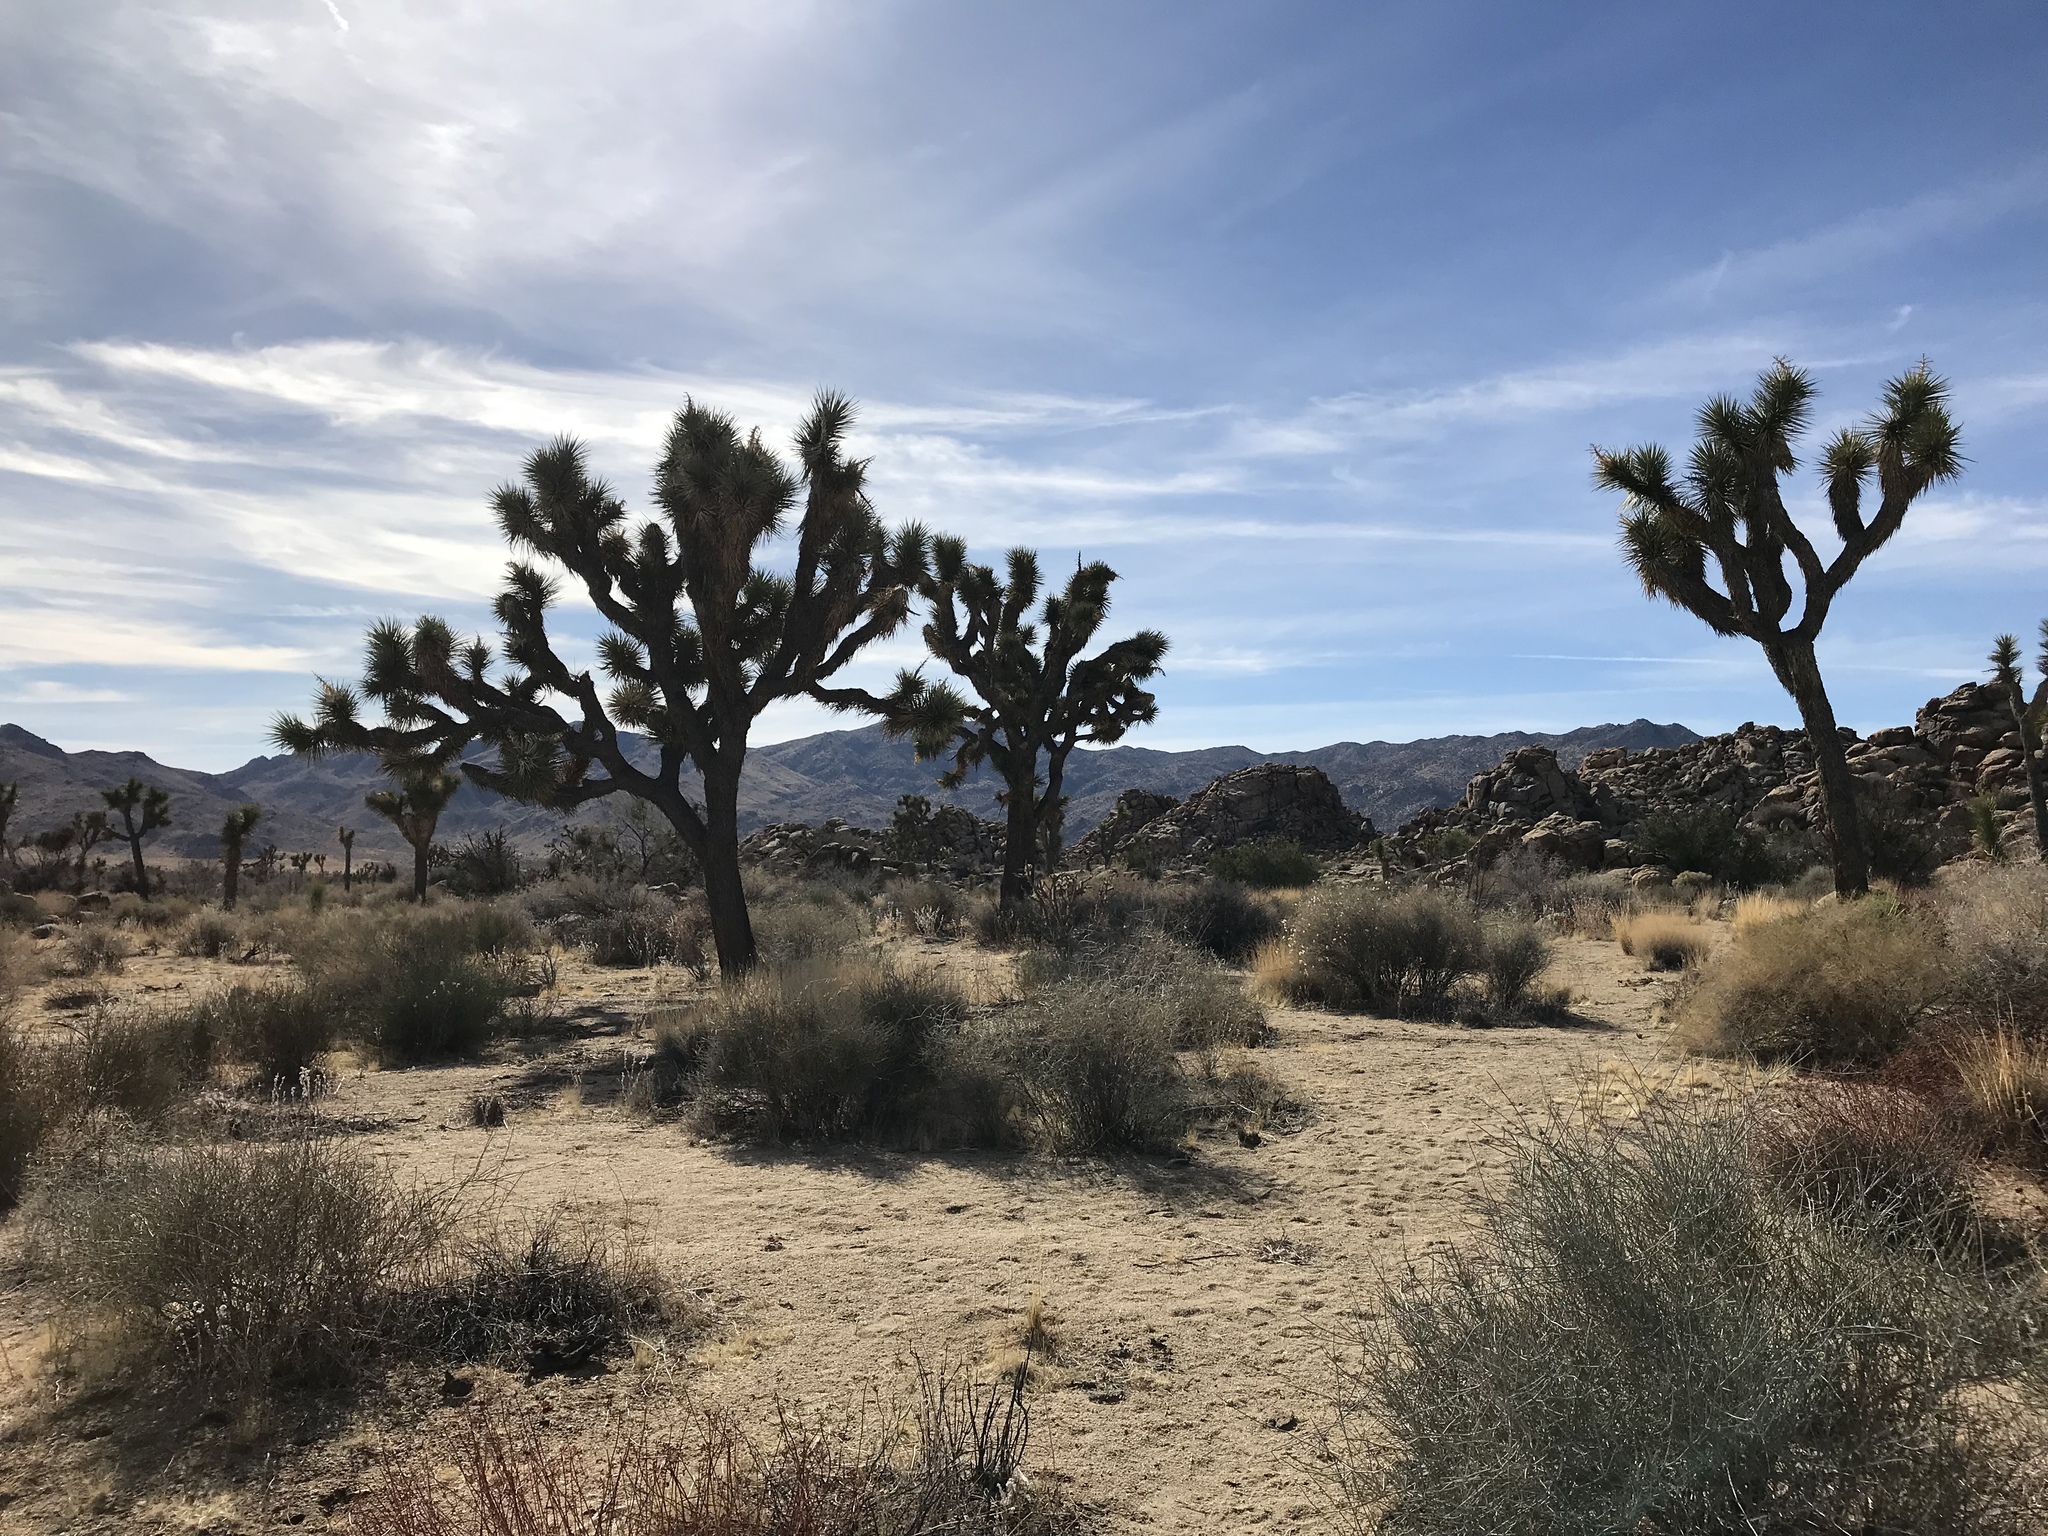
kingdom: Plantae
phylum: Tracheophyta
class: Liliopsida
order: Asparagales
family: Asparagaceae
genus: Yucca
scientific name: Yucca brevifolia
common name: Joshua tree
